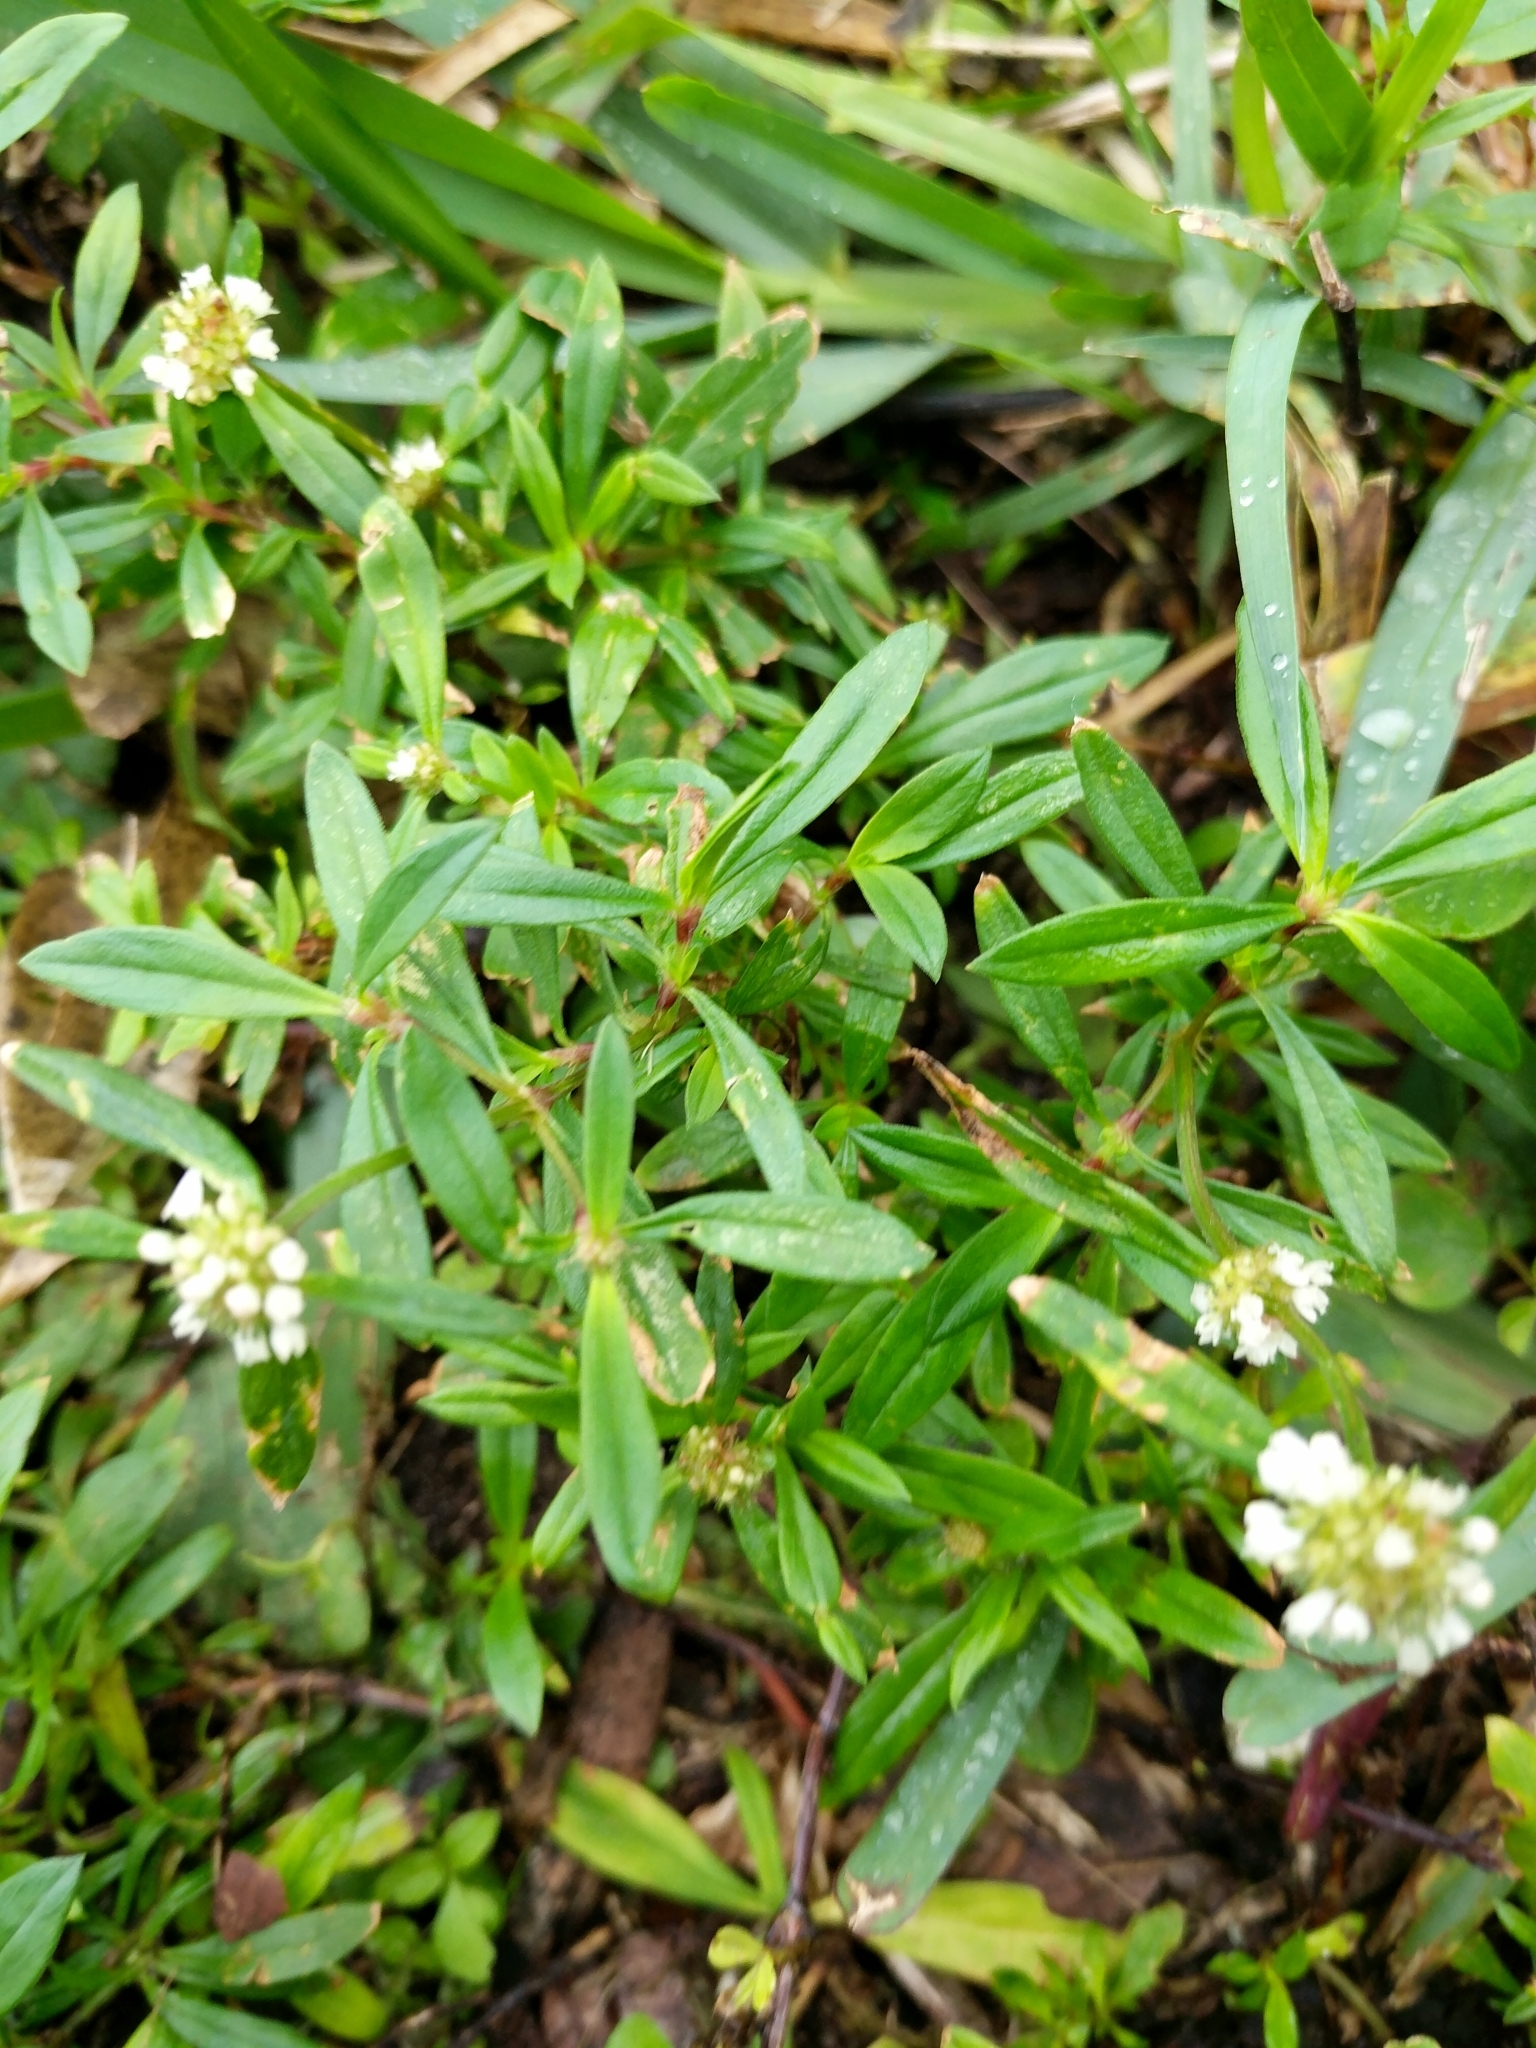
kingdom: Plantae
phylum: Tracheophyta
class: Magnoliopsida
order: Gentianales
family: Rubiaceae
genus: Spermacoce
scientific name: Spermacoce verticillata
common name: Shrubby false buttonweed
